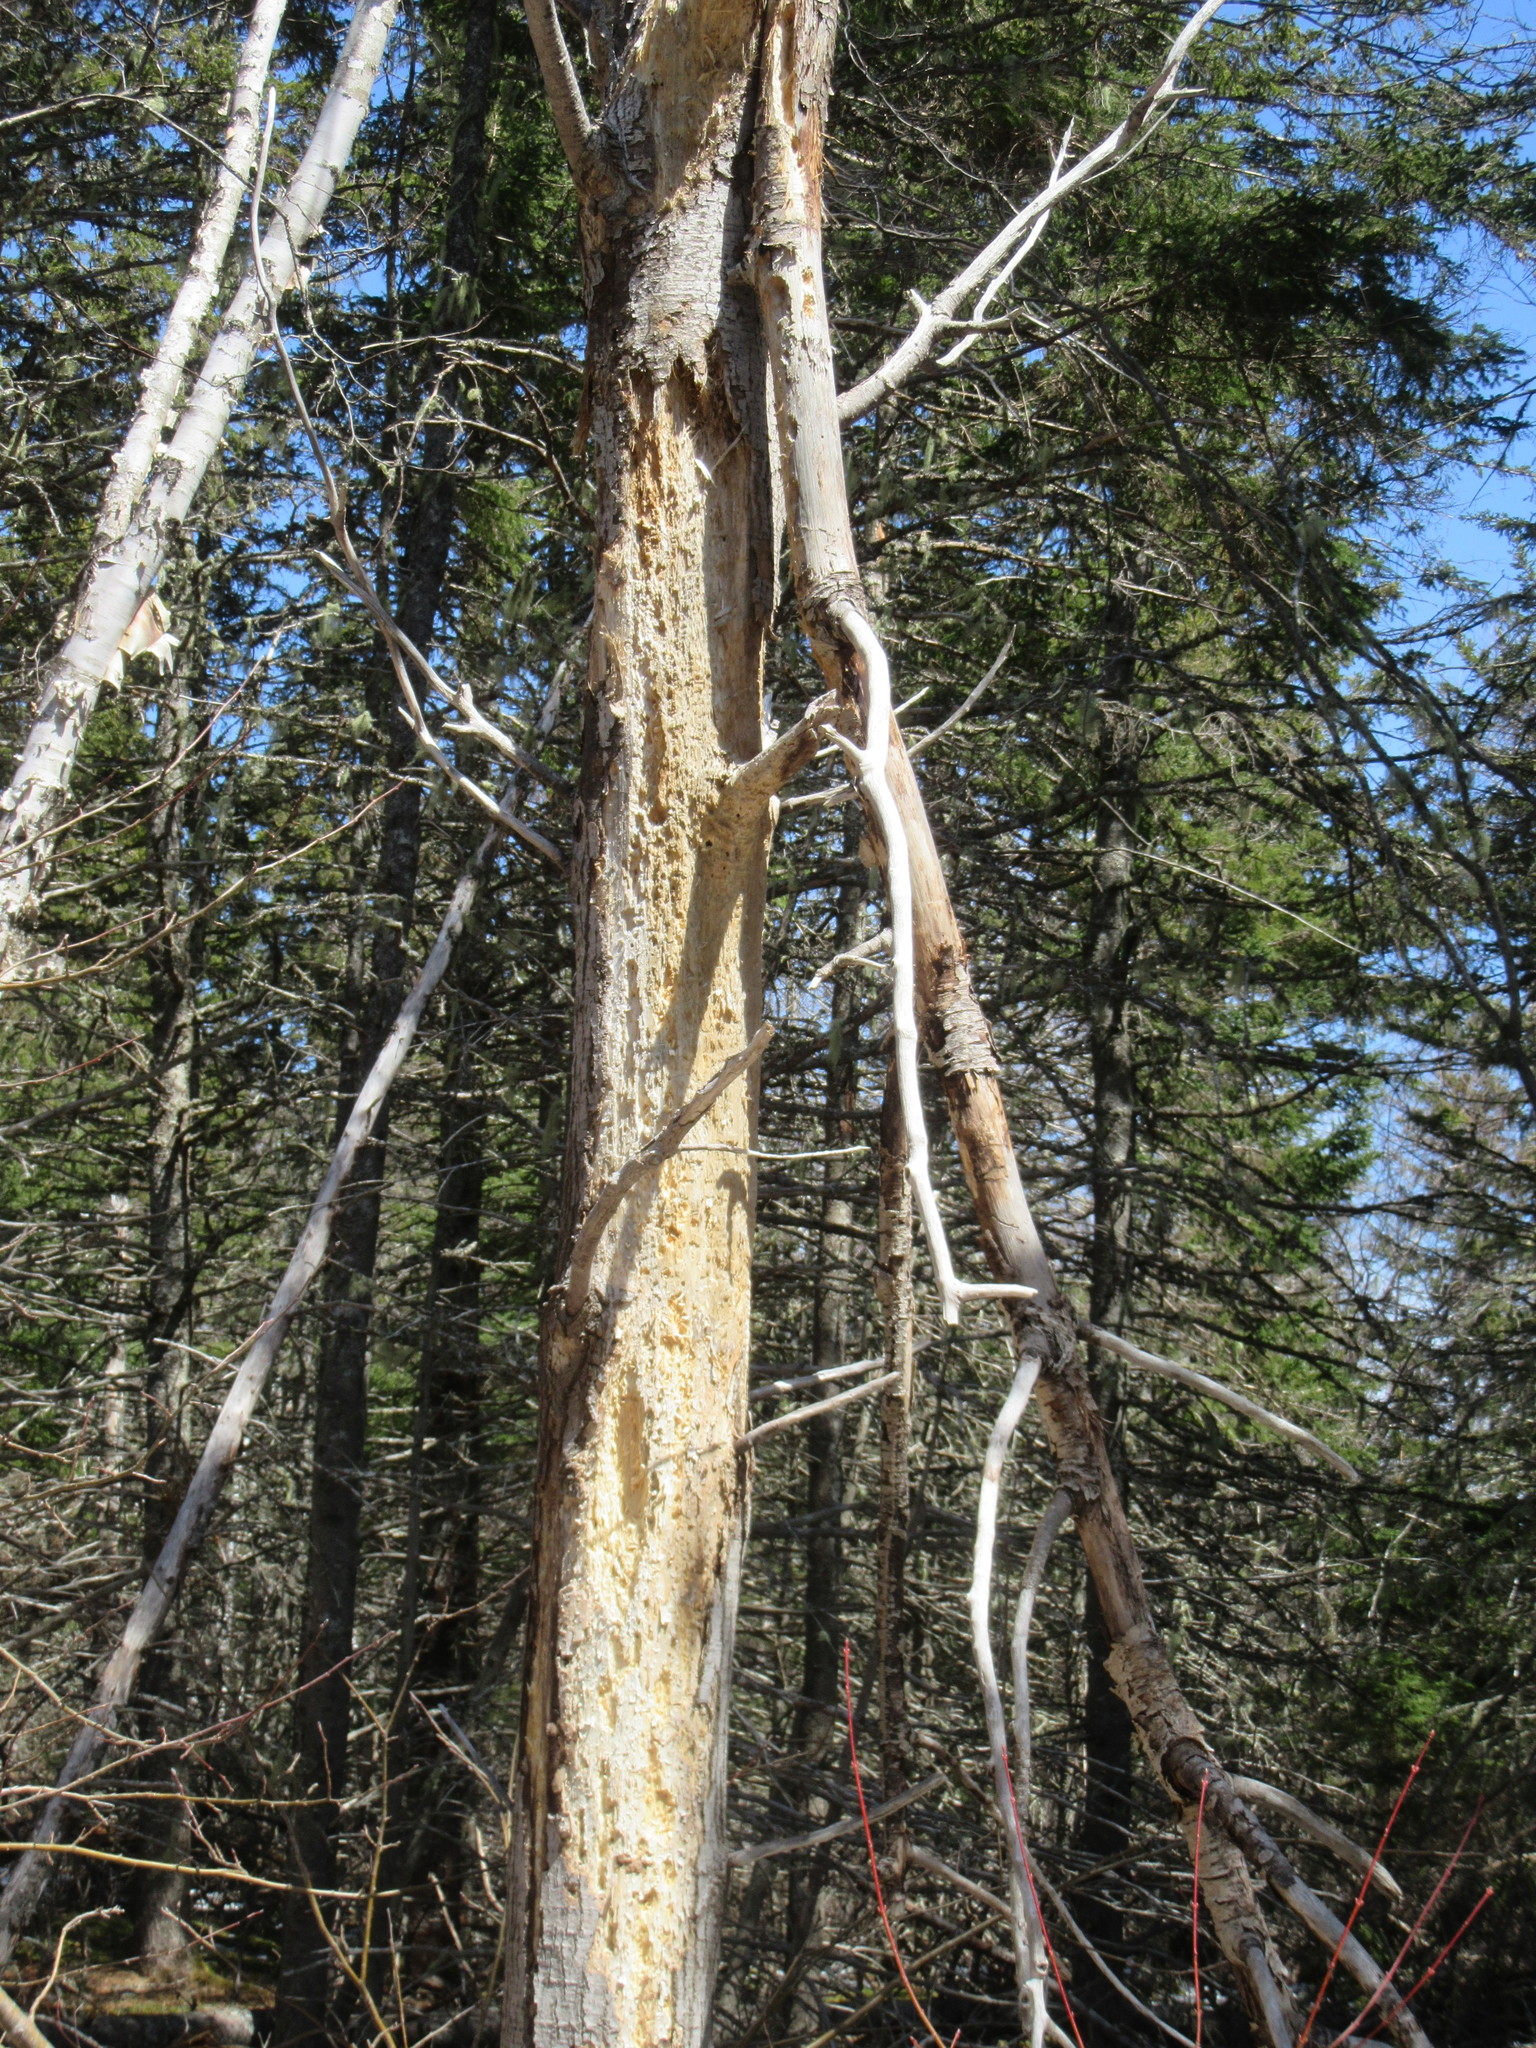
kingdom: Animalia
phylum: Chordata
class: Aves
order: Piciformes
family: Picidae
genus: Dryocopus
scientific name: Dryocopus pileatus
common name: Pileated woodpecker
